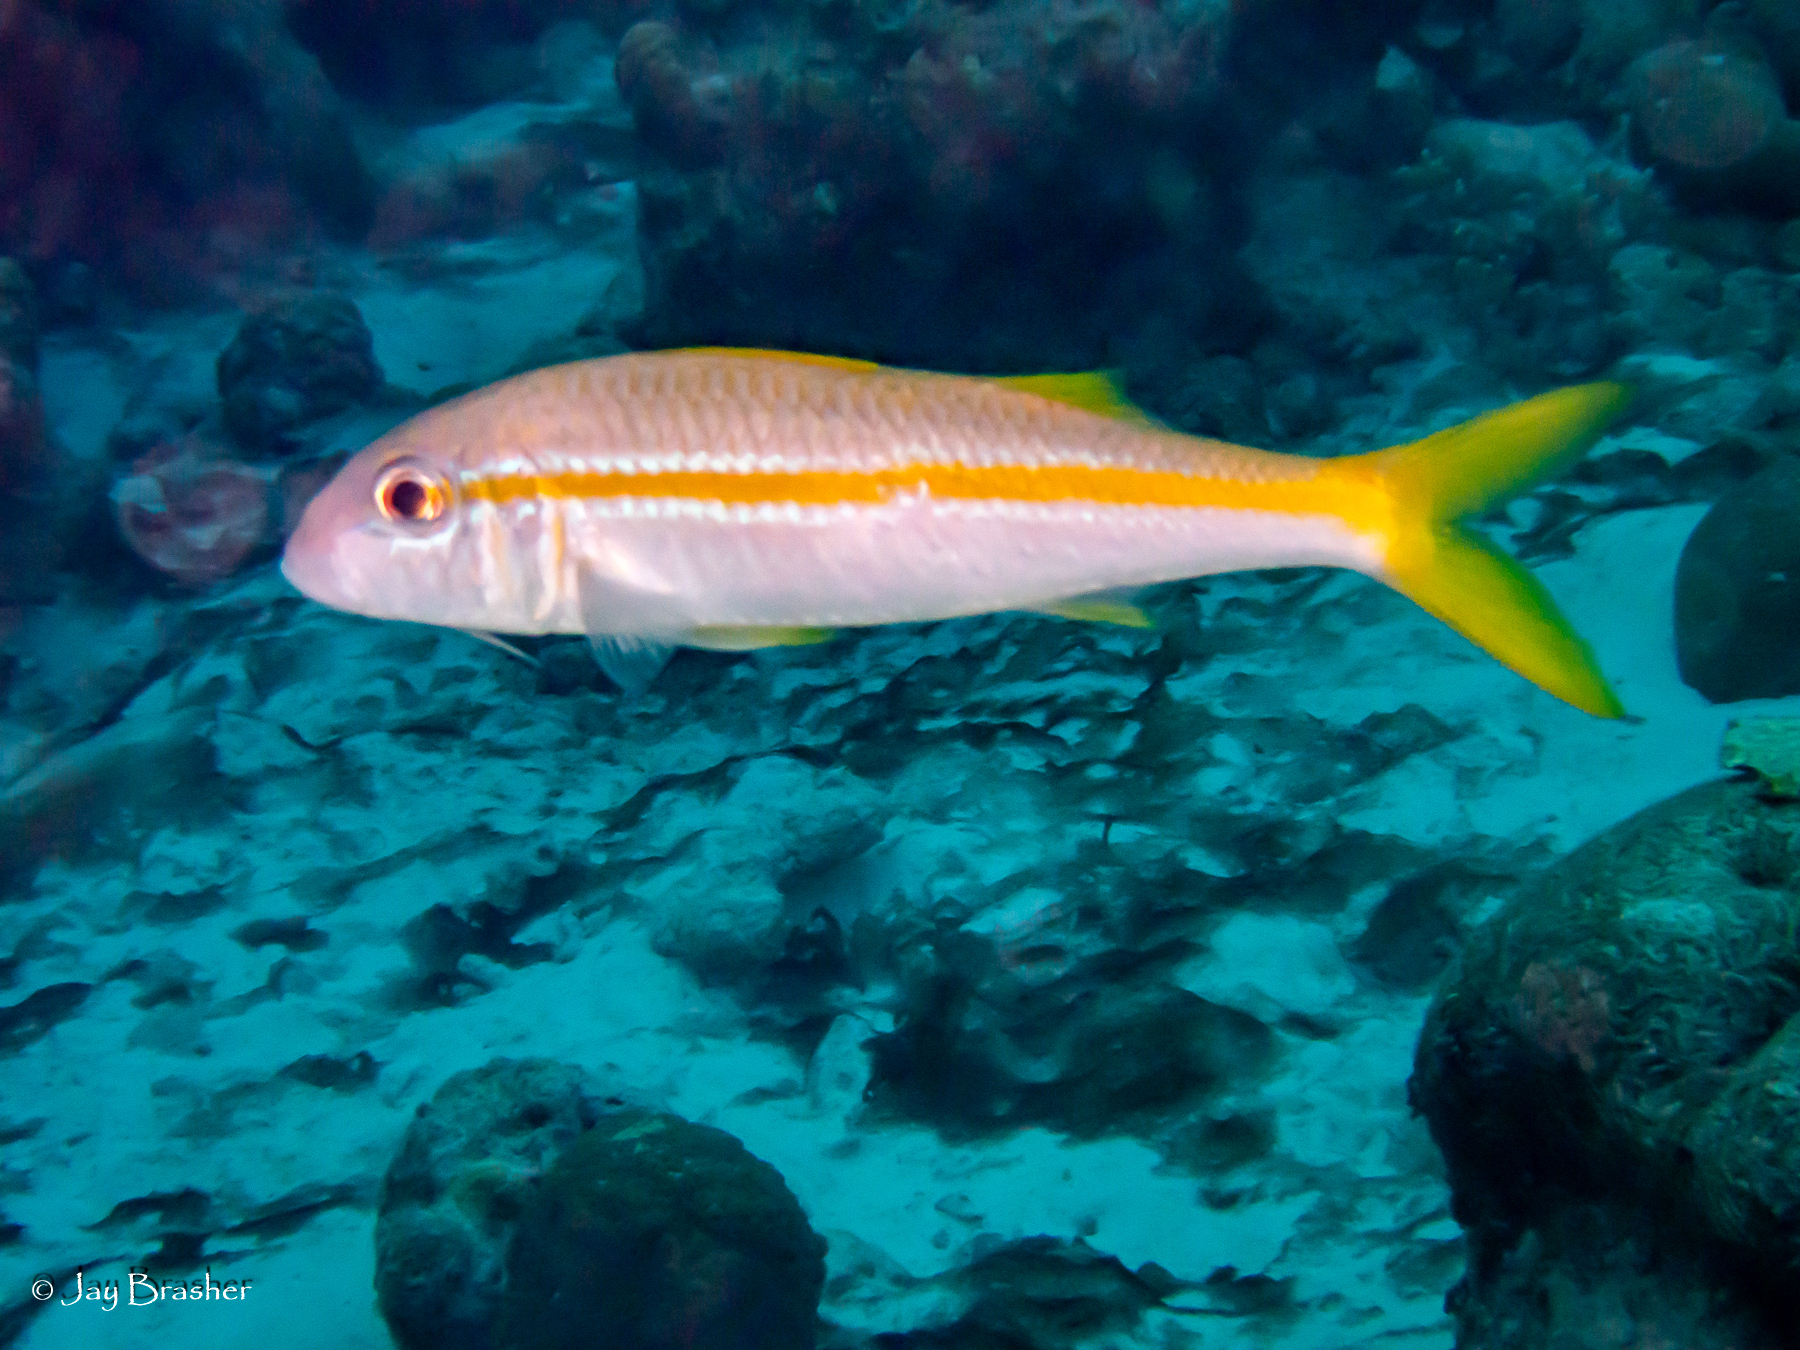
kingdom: Animalia
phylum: Chordata
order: Perciformes
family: Mullidae
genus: Mulloidichthys
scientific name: Mulloidichthys martinicus
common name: Yellow goatfish
